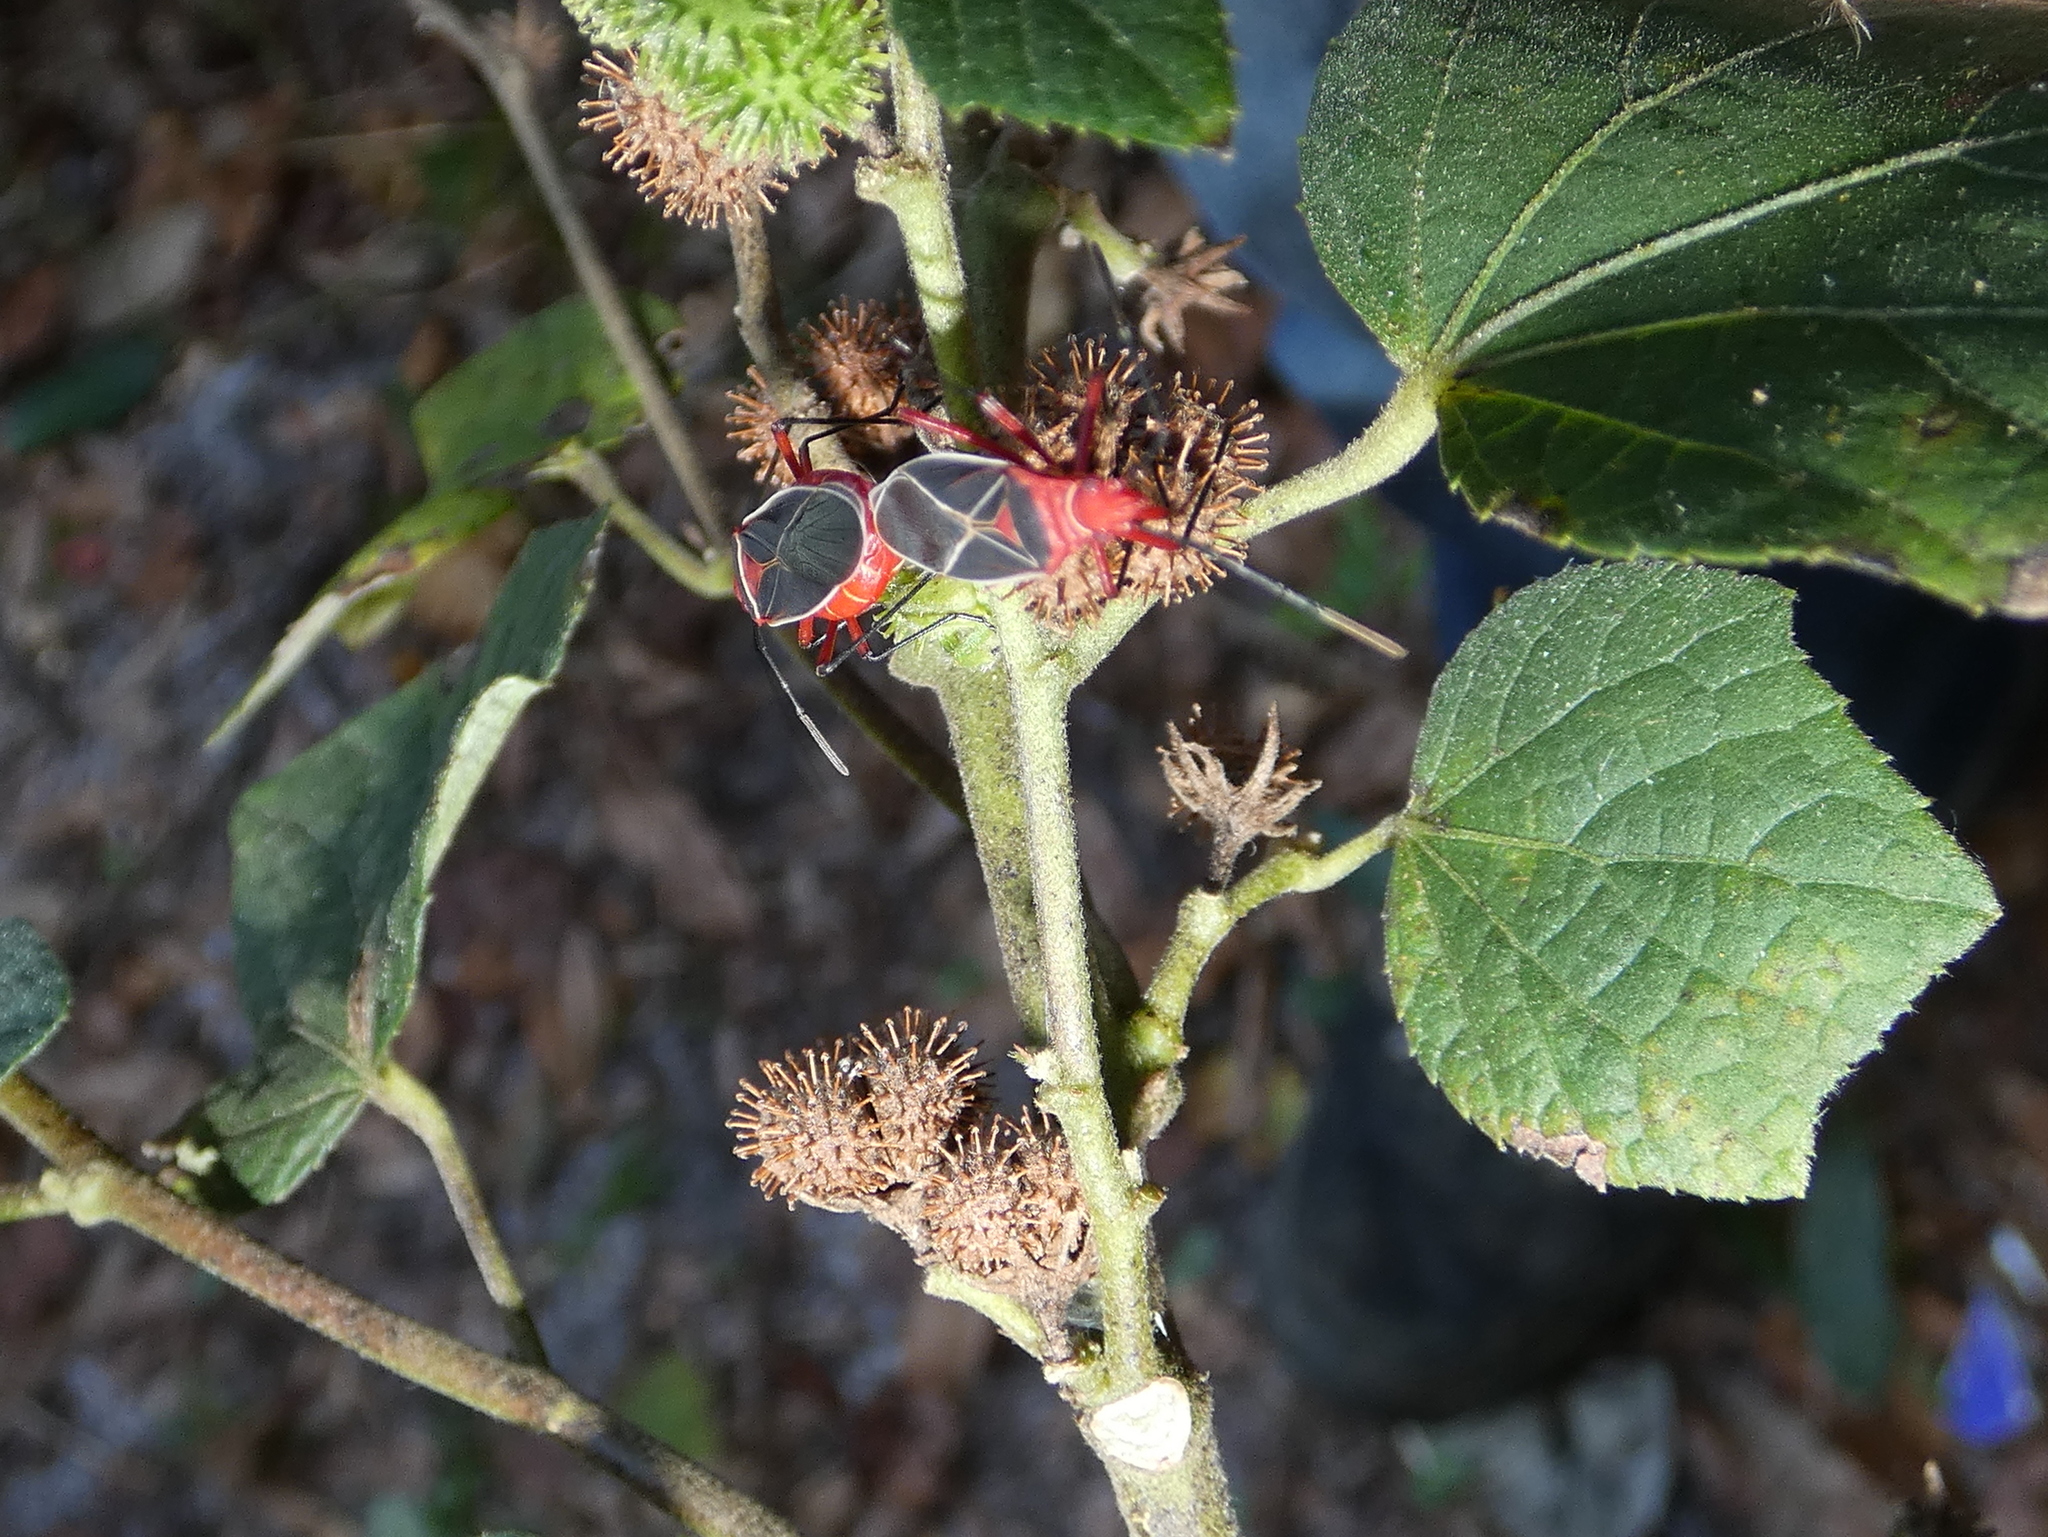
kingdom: Animalia
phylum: Arthropoda
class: Insecta
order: Hemiptera
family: Pyrrhocoridae
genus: Dysdercus
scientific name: Dysdercus suturellus
